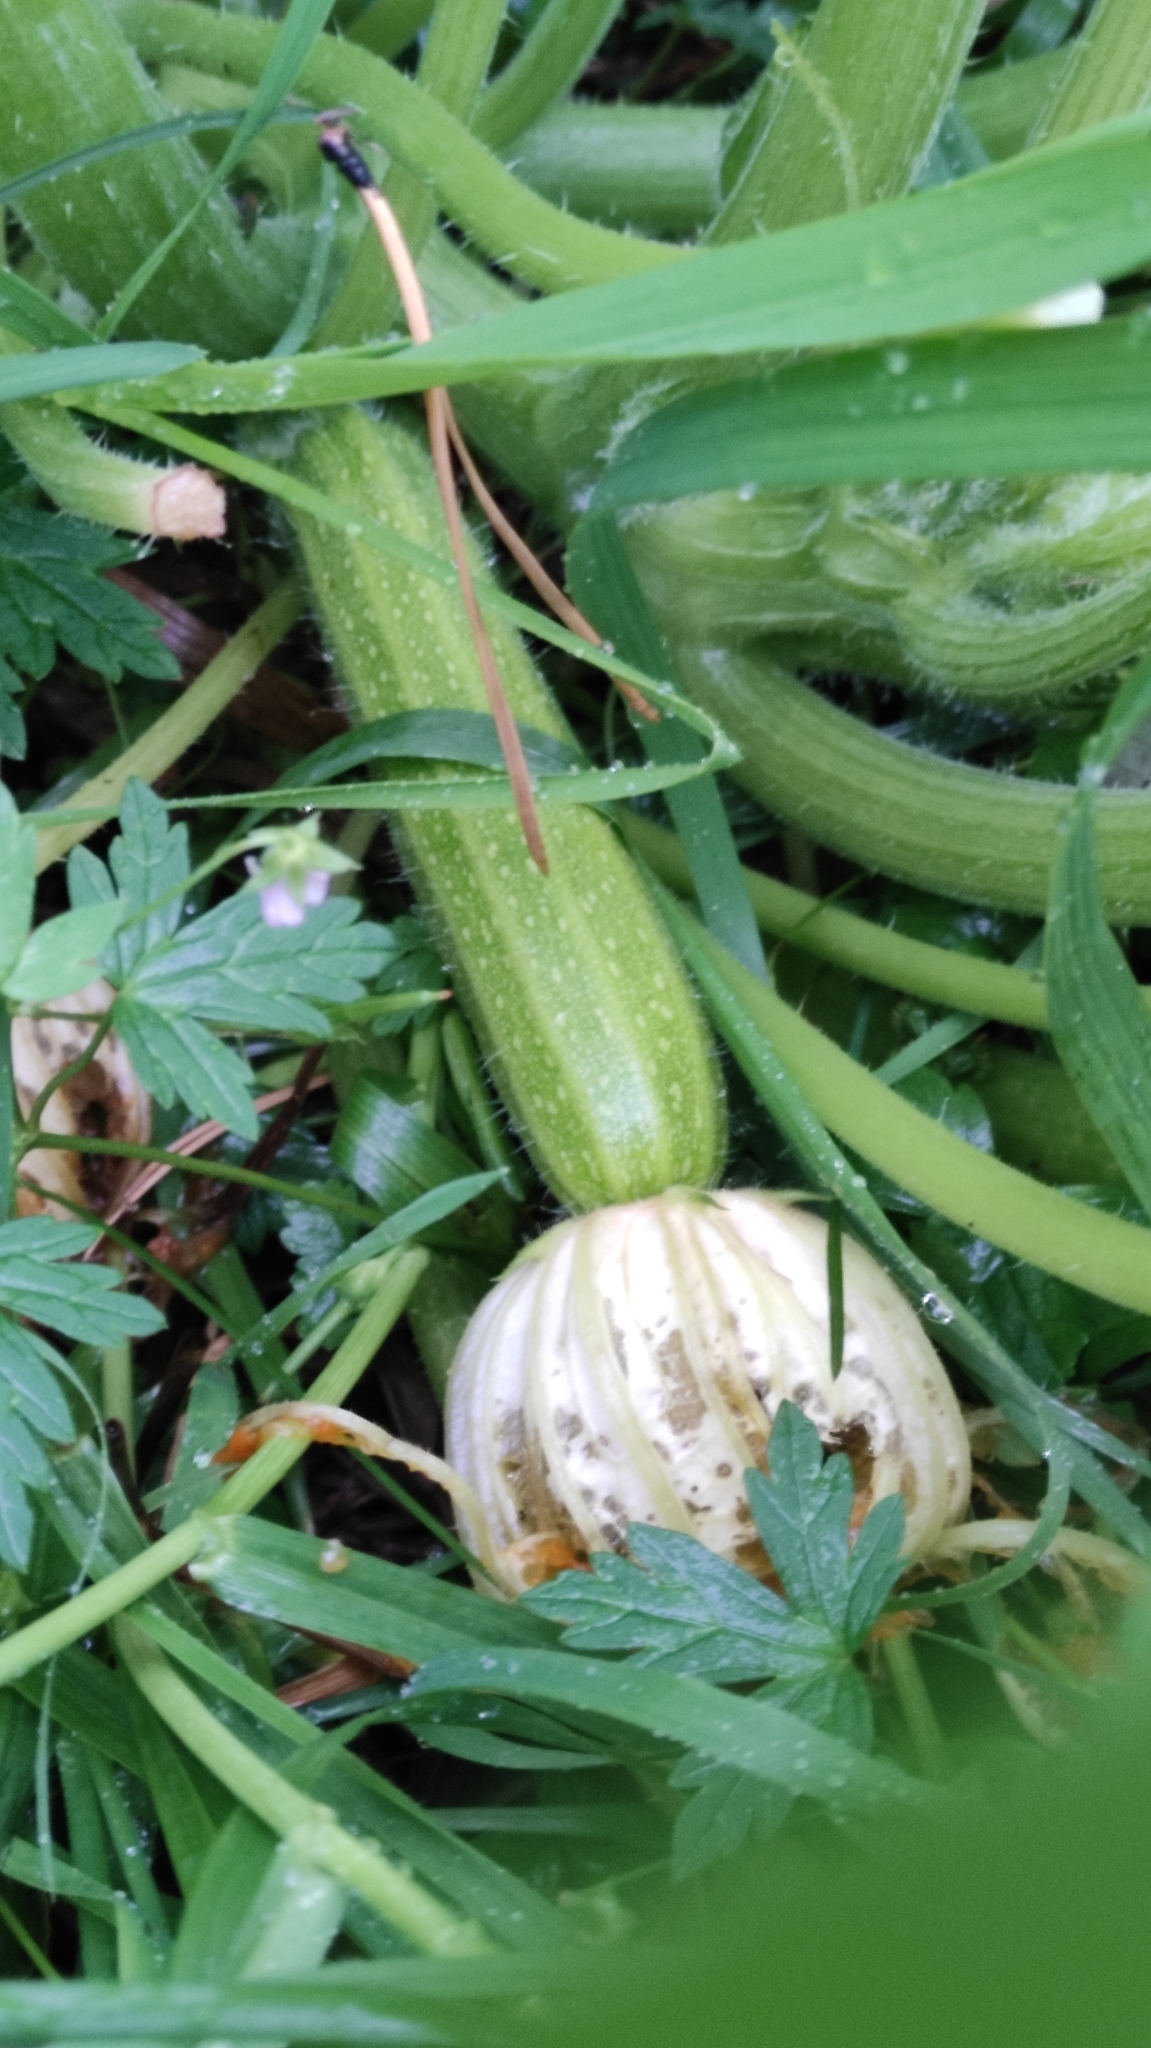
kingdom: Plantae
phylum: Tracheophyta
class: Magnoliopsida
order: Cucurbitales
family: Cucurbitaceae
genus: Cucurbita
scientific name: Cucurbita pepo
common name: Marrow
